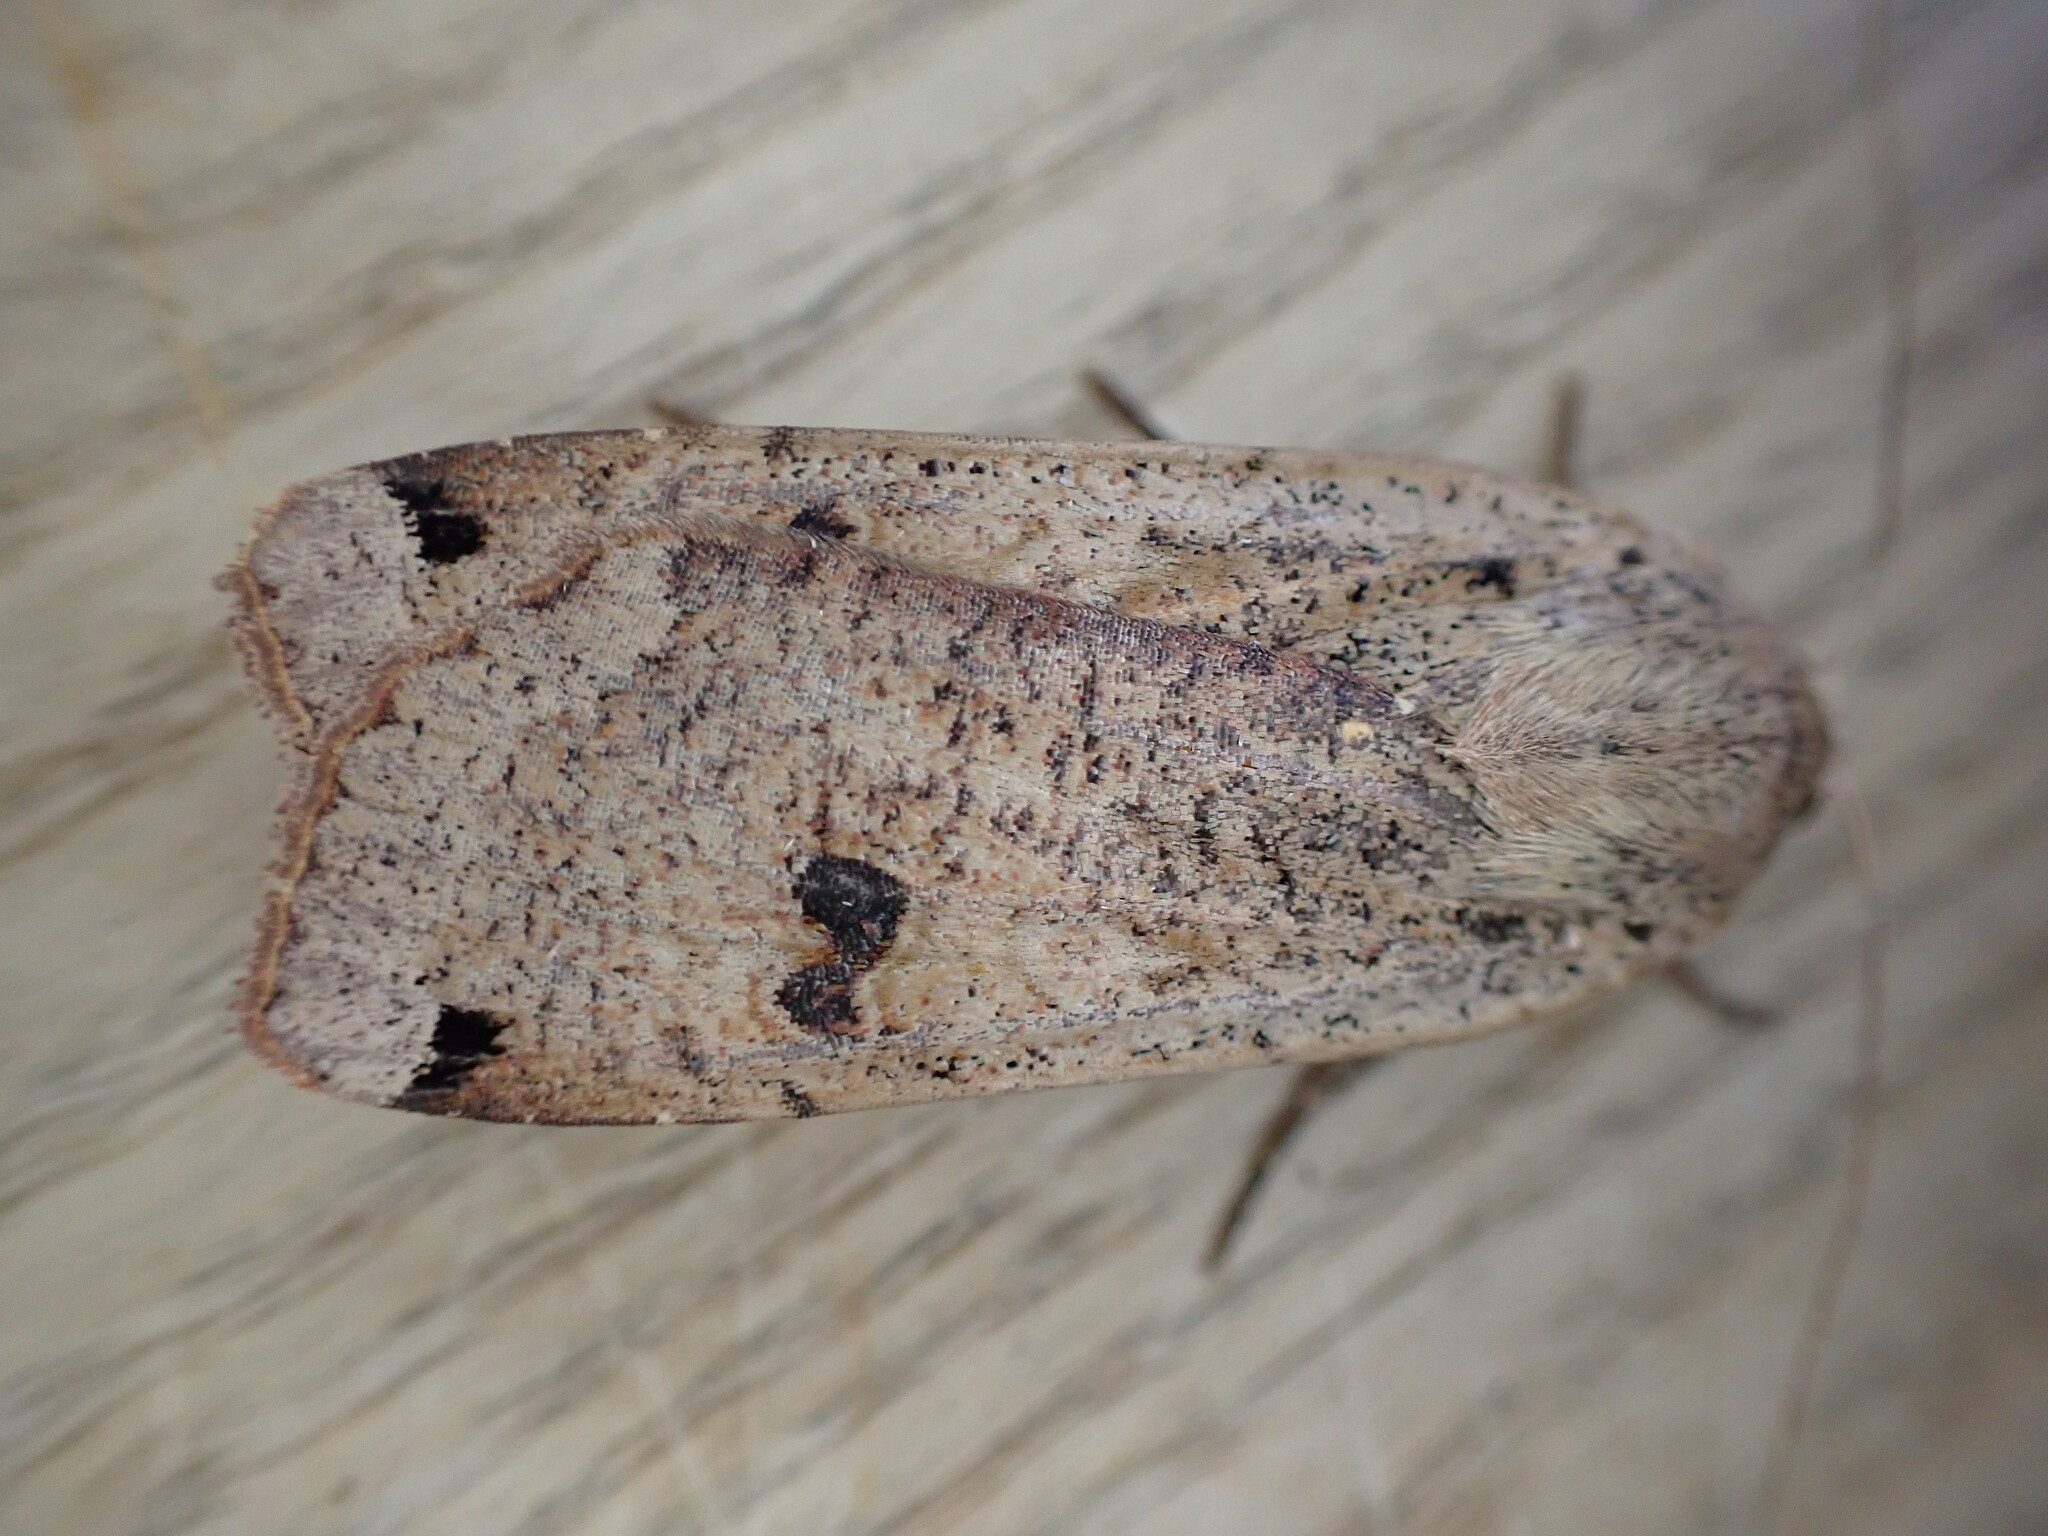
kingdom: Animalia
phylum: Arthropoda
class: Insecta
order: Lepidoptera
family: Noctuidae
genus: Noctua
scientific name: Noctua pronuba
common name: Large yellow underwing
